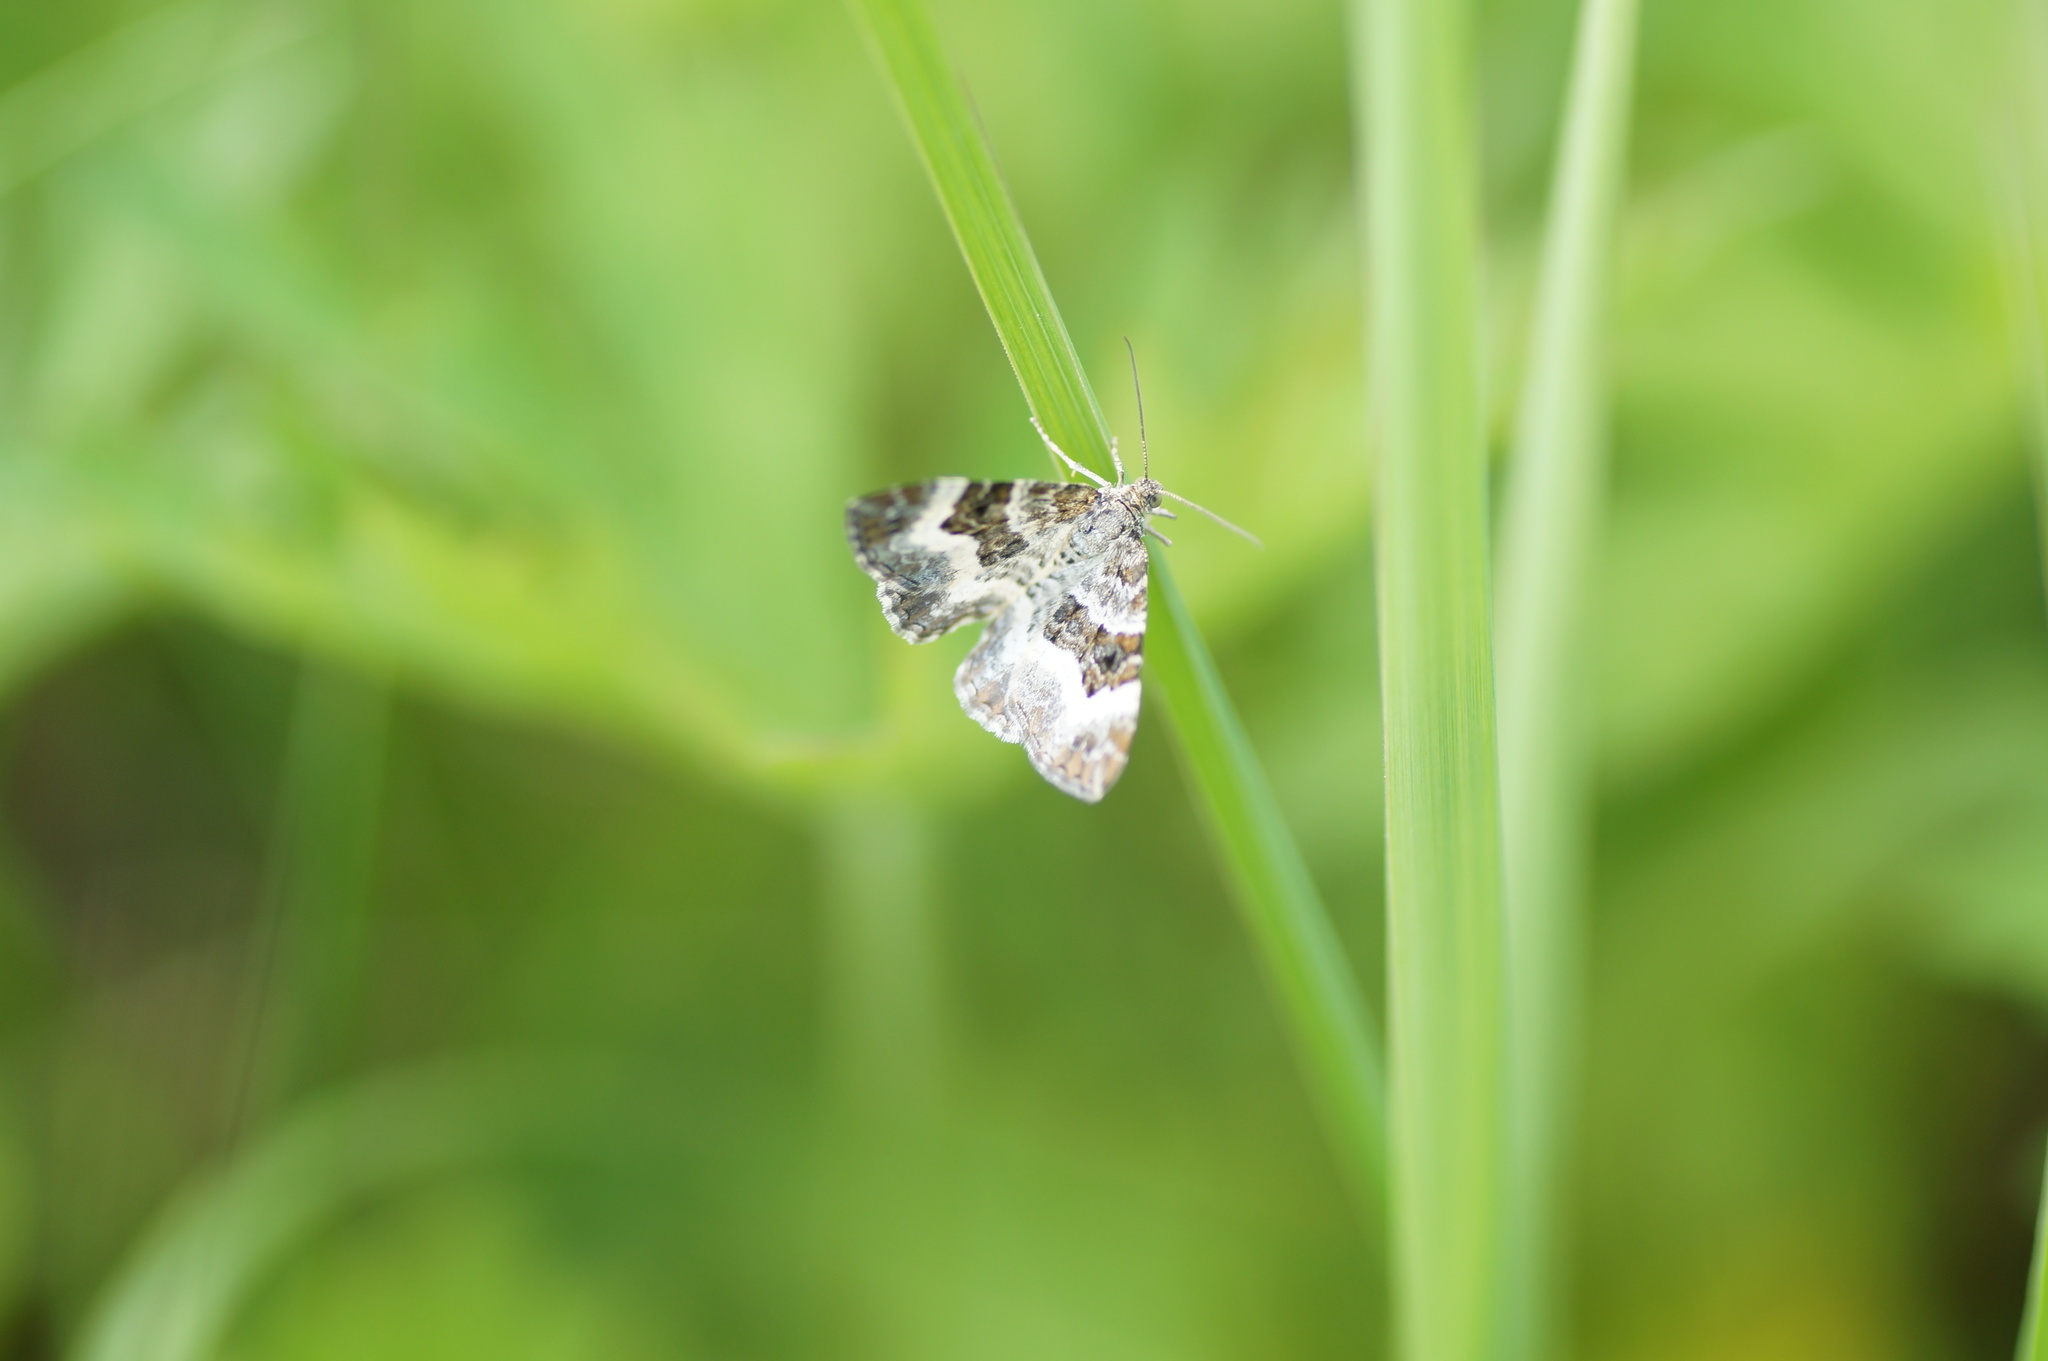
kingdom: Animalia
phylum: Arthropoda
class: Insecta
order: Lepidoptera
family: Geometridae
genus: Epirrhoe
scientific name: Epirrhoe alternata
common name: Common carpet
